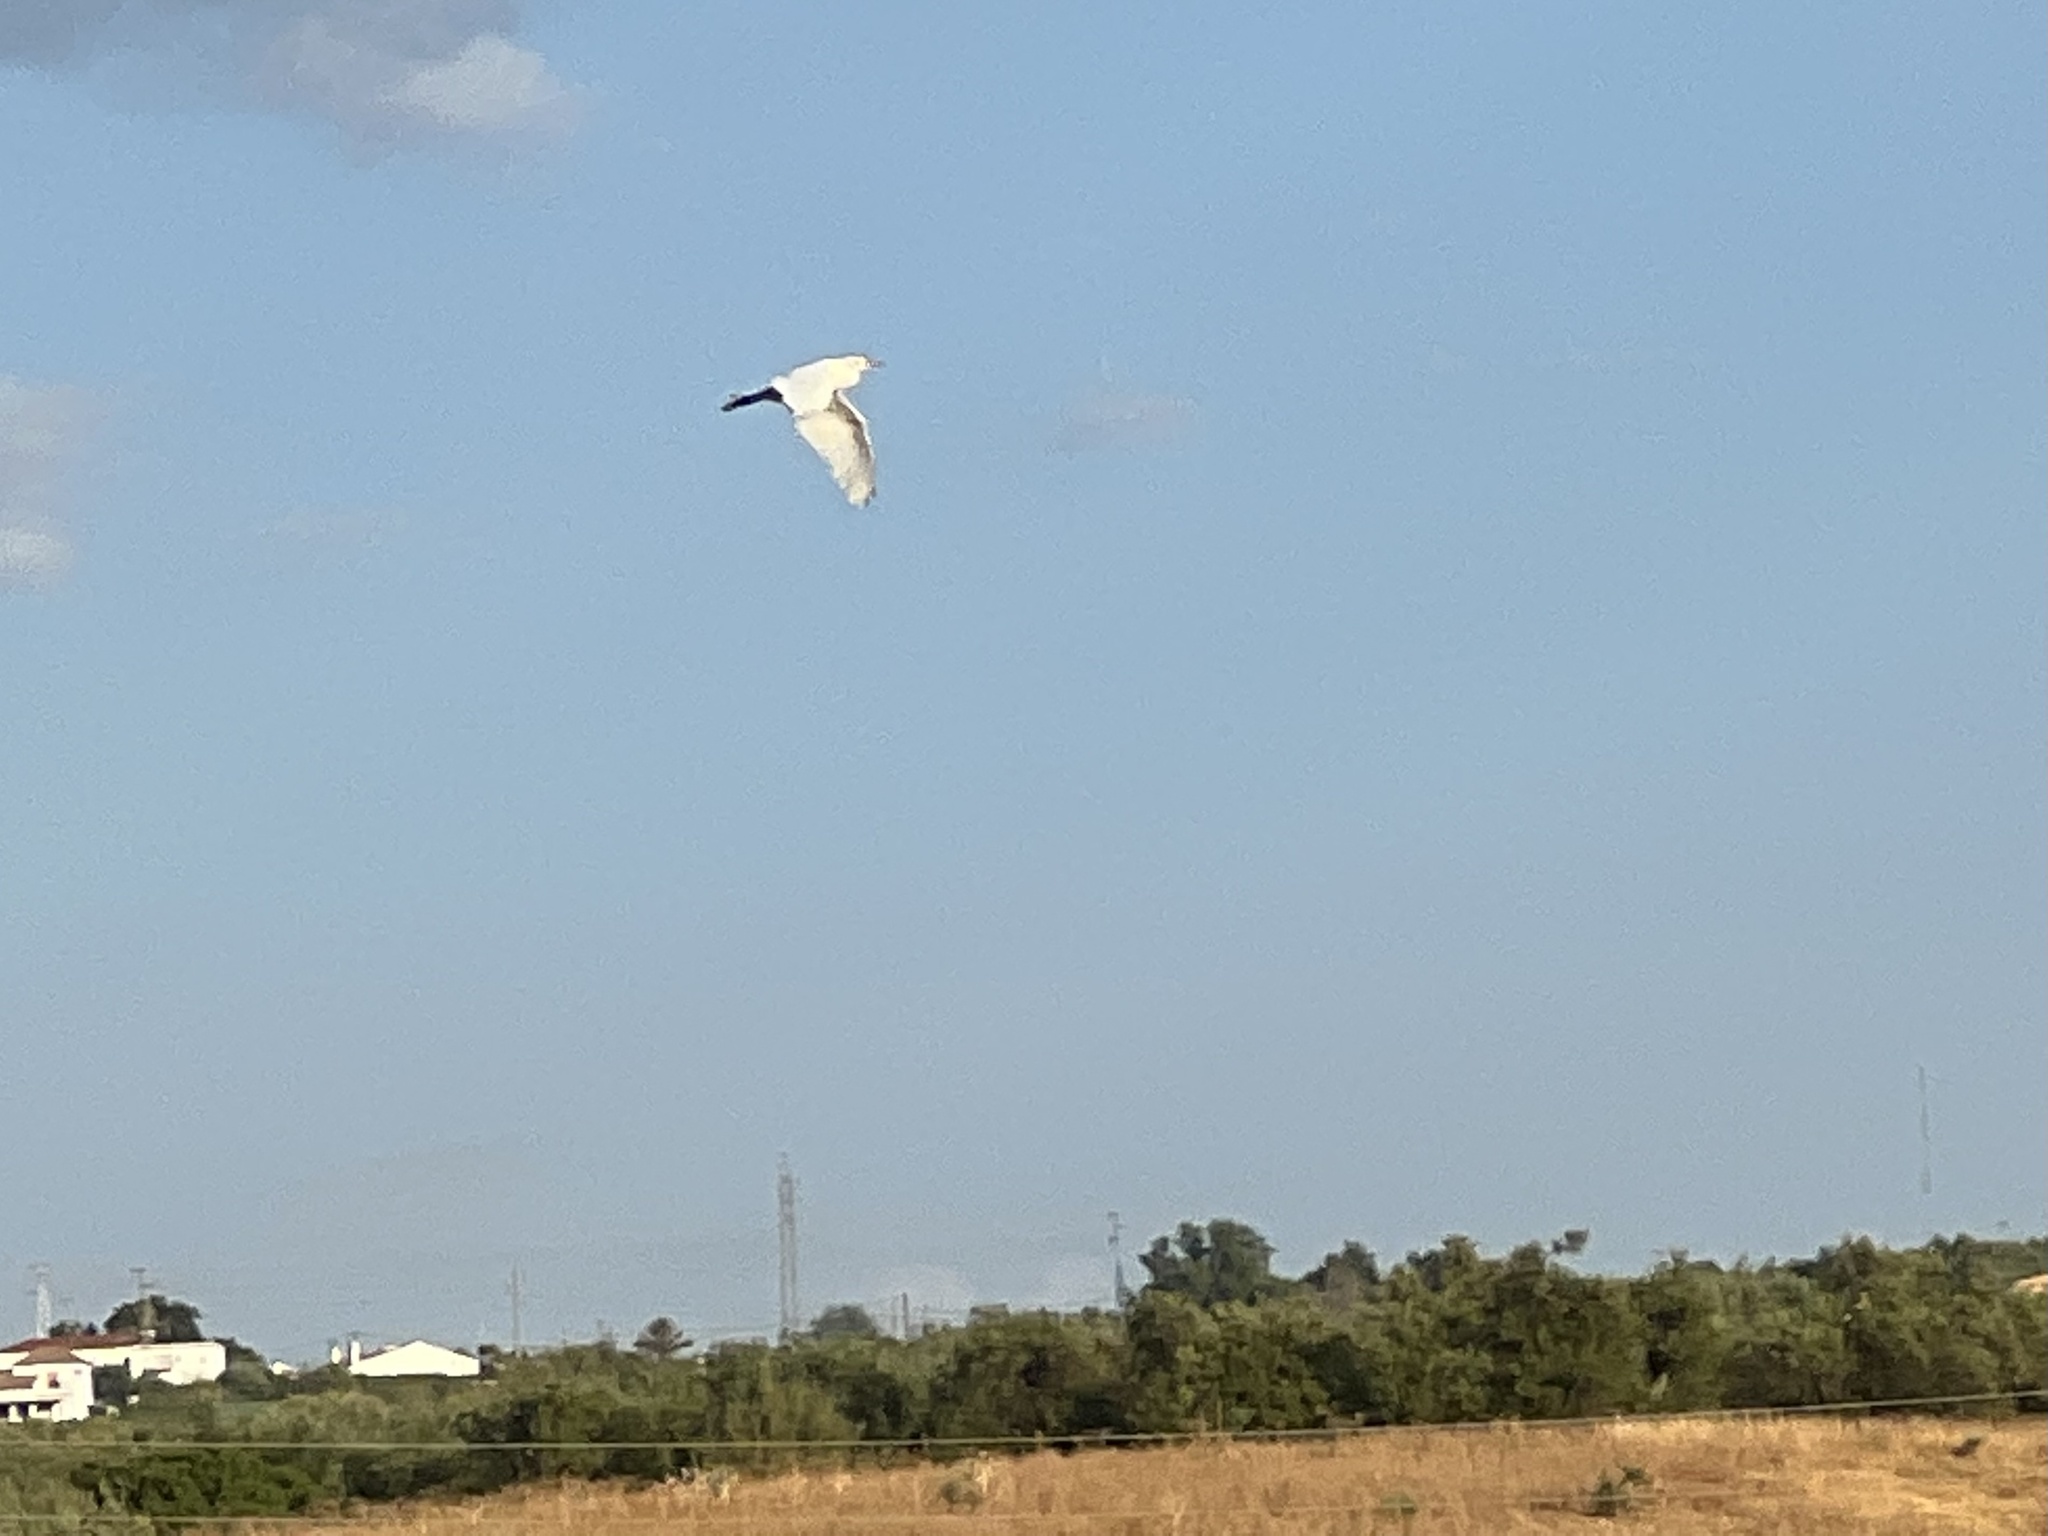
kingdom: Animalia
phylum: Chordata
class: Aves
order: Pelecaniformes
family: Ardeidae
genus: Bubulcus
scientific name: Bubulcus ibis
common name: Cattle egret
